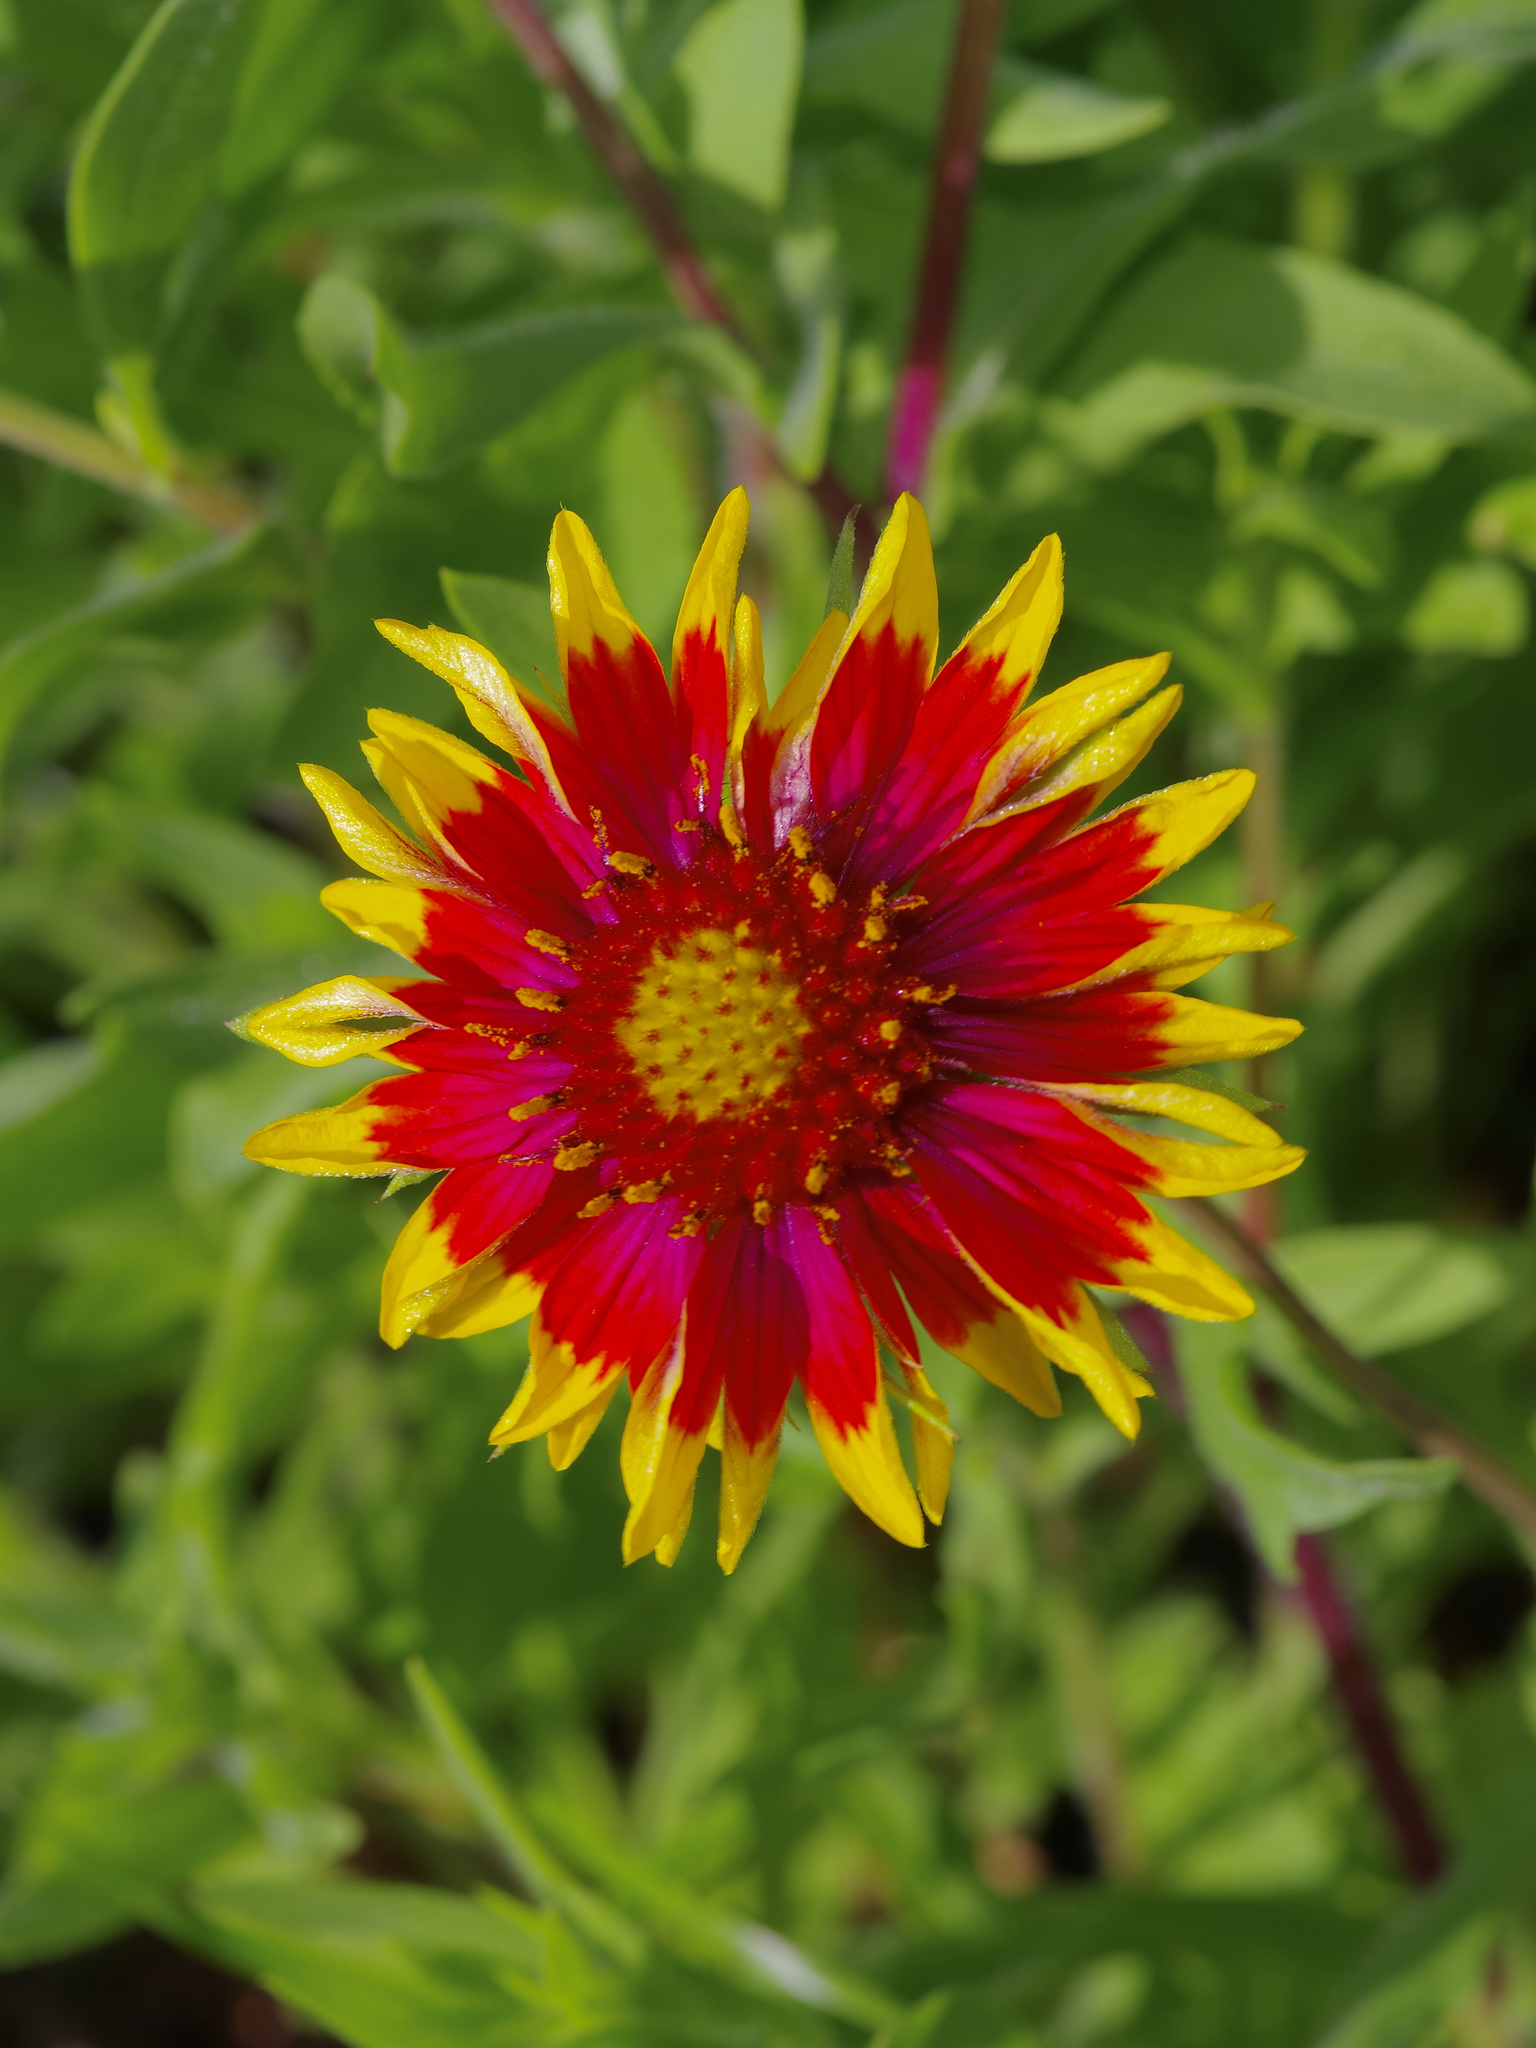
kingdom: Plantae
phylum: Tracheophyta
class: Magnoliopsida
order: Asterales
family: Asteraceae
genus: Gaillardia
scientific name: Gaillardia pulchella
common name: Firewheel
